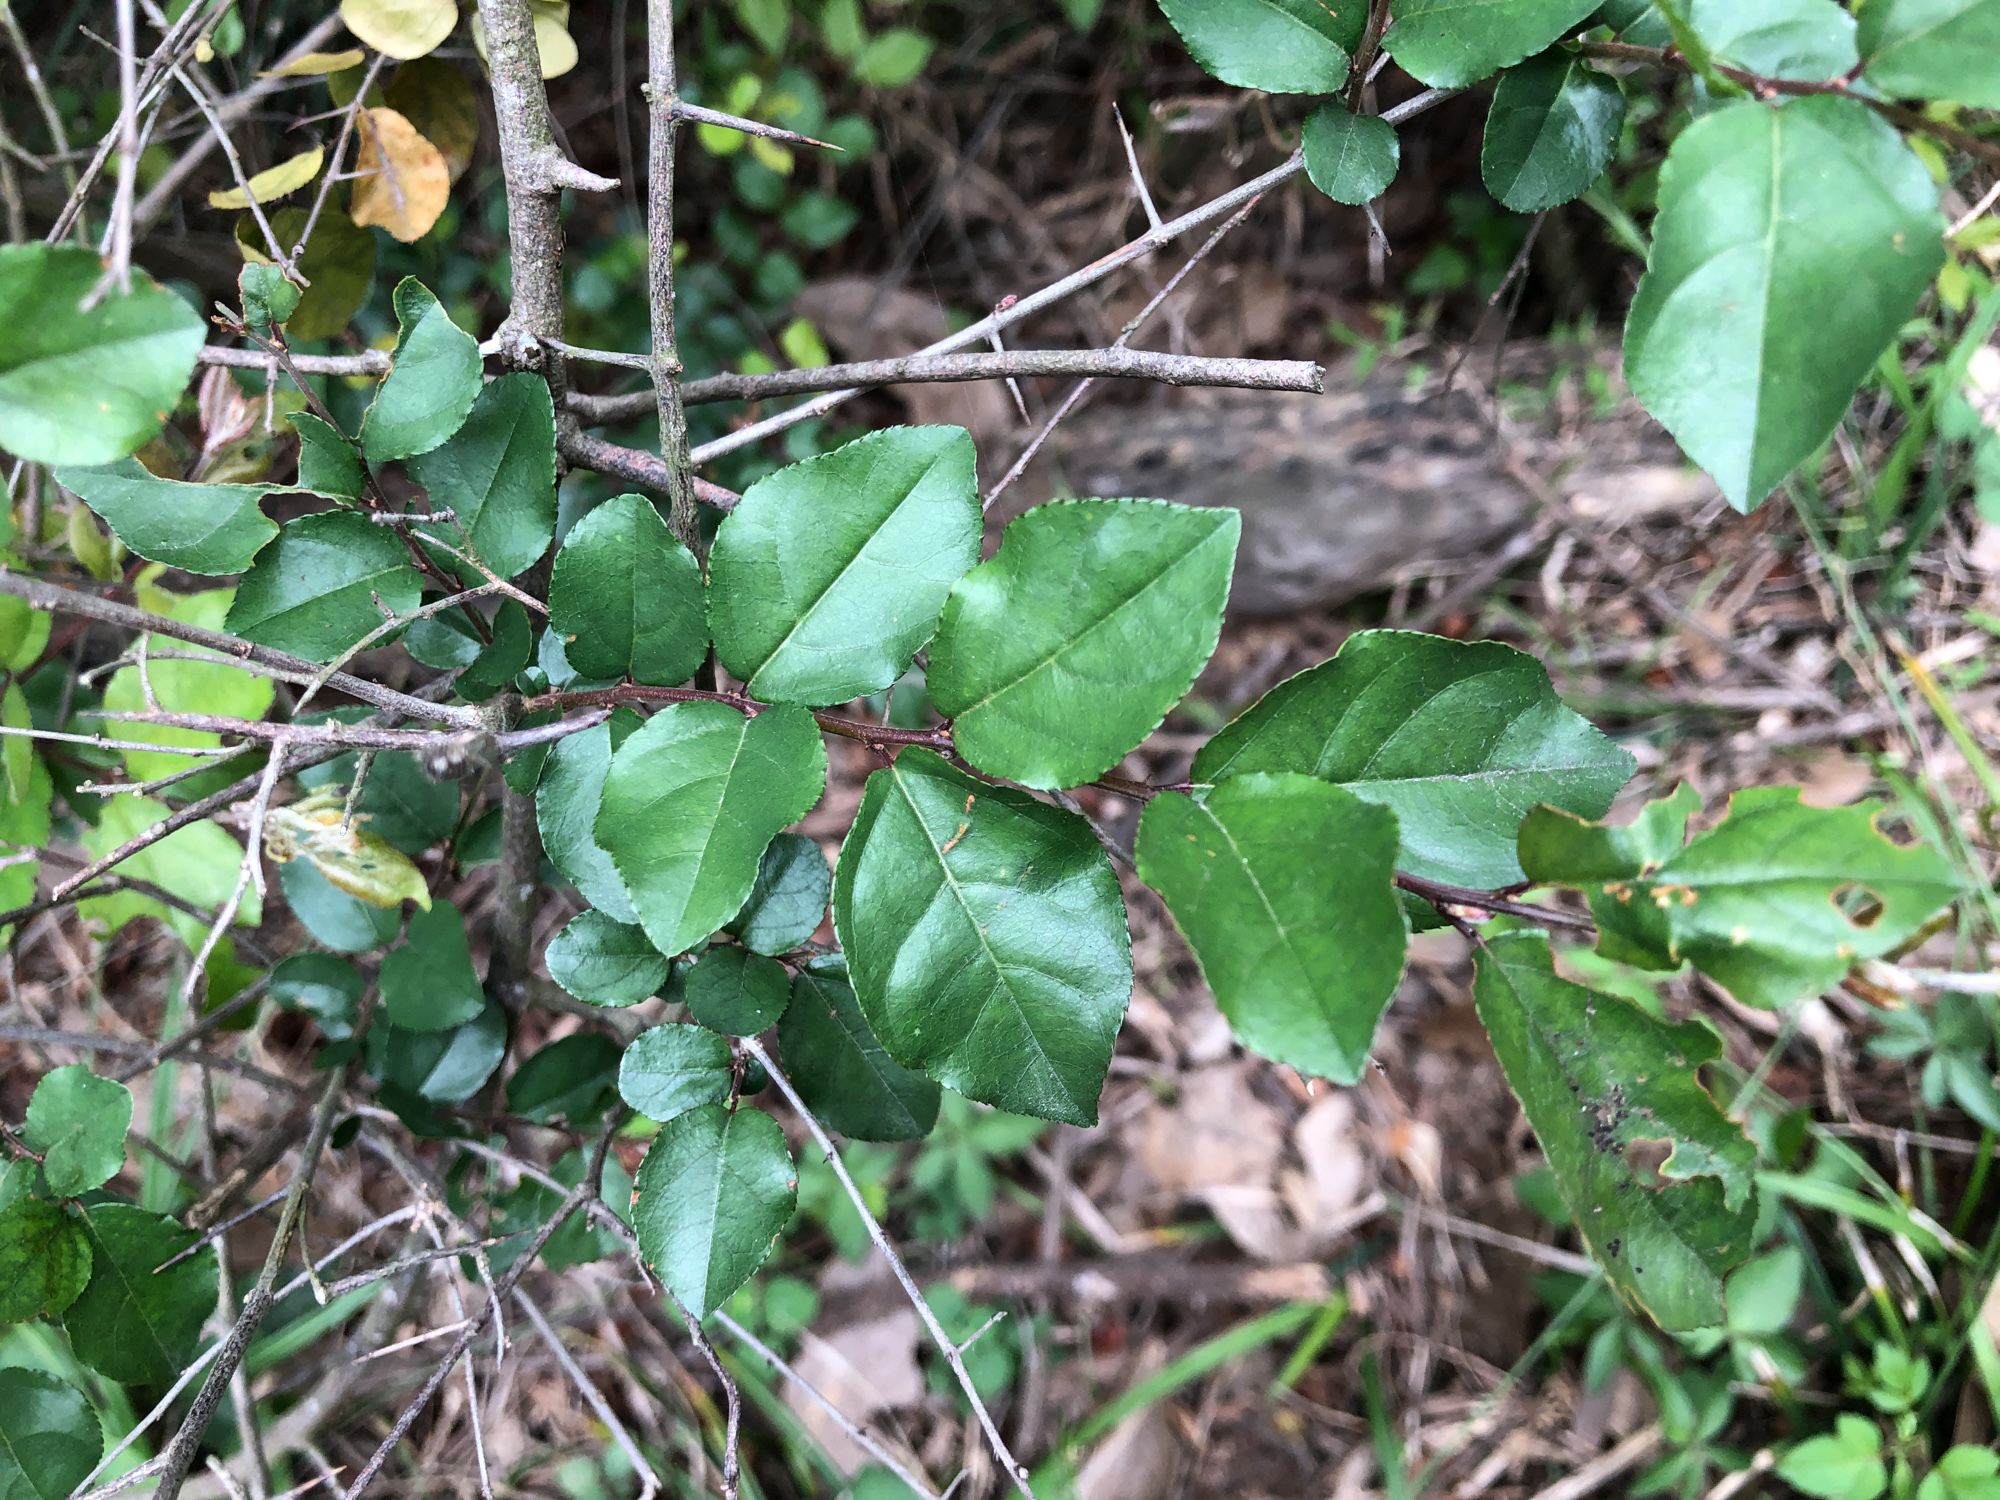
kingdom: Plantae
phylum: Tracheophyta
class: Magnoliopsida
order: Rosales
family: Rhamnaceae
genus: Sageretia
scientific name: Sageretia thea
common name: Pauper's-tea
